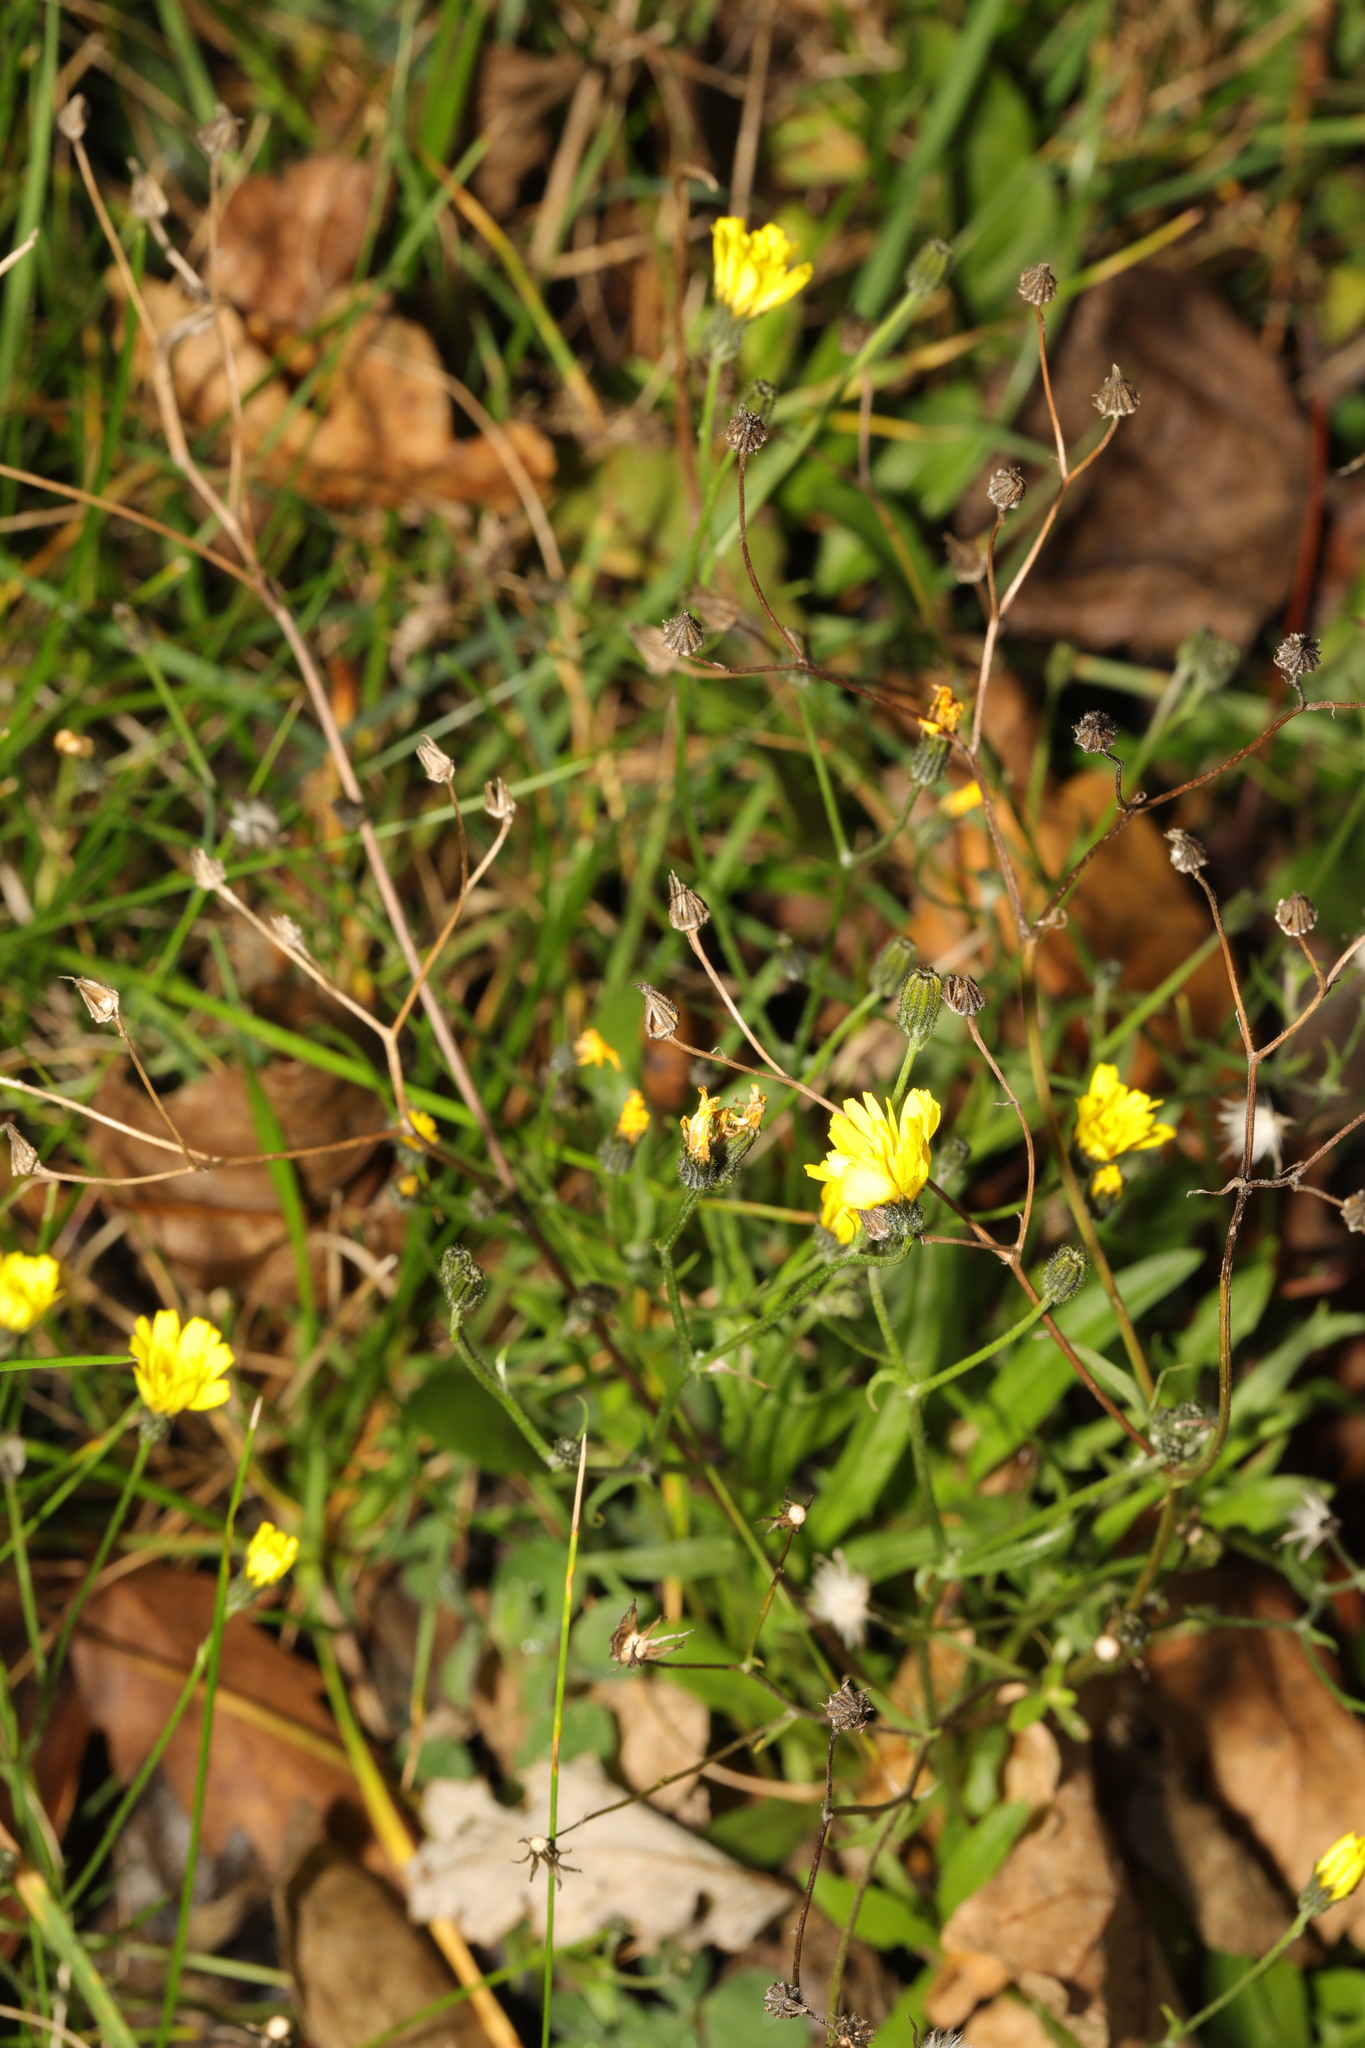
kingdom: Plantae
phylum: Tracheophyta
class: Magnoliopsida
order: Asterales
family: Asteraceae
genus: Lapsana
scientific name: Lapsana communis
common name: Nipplewort
